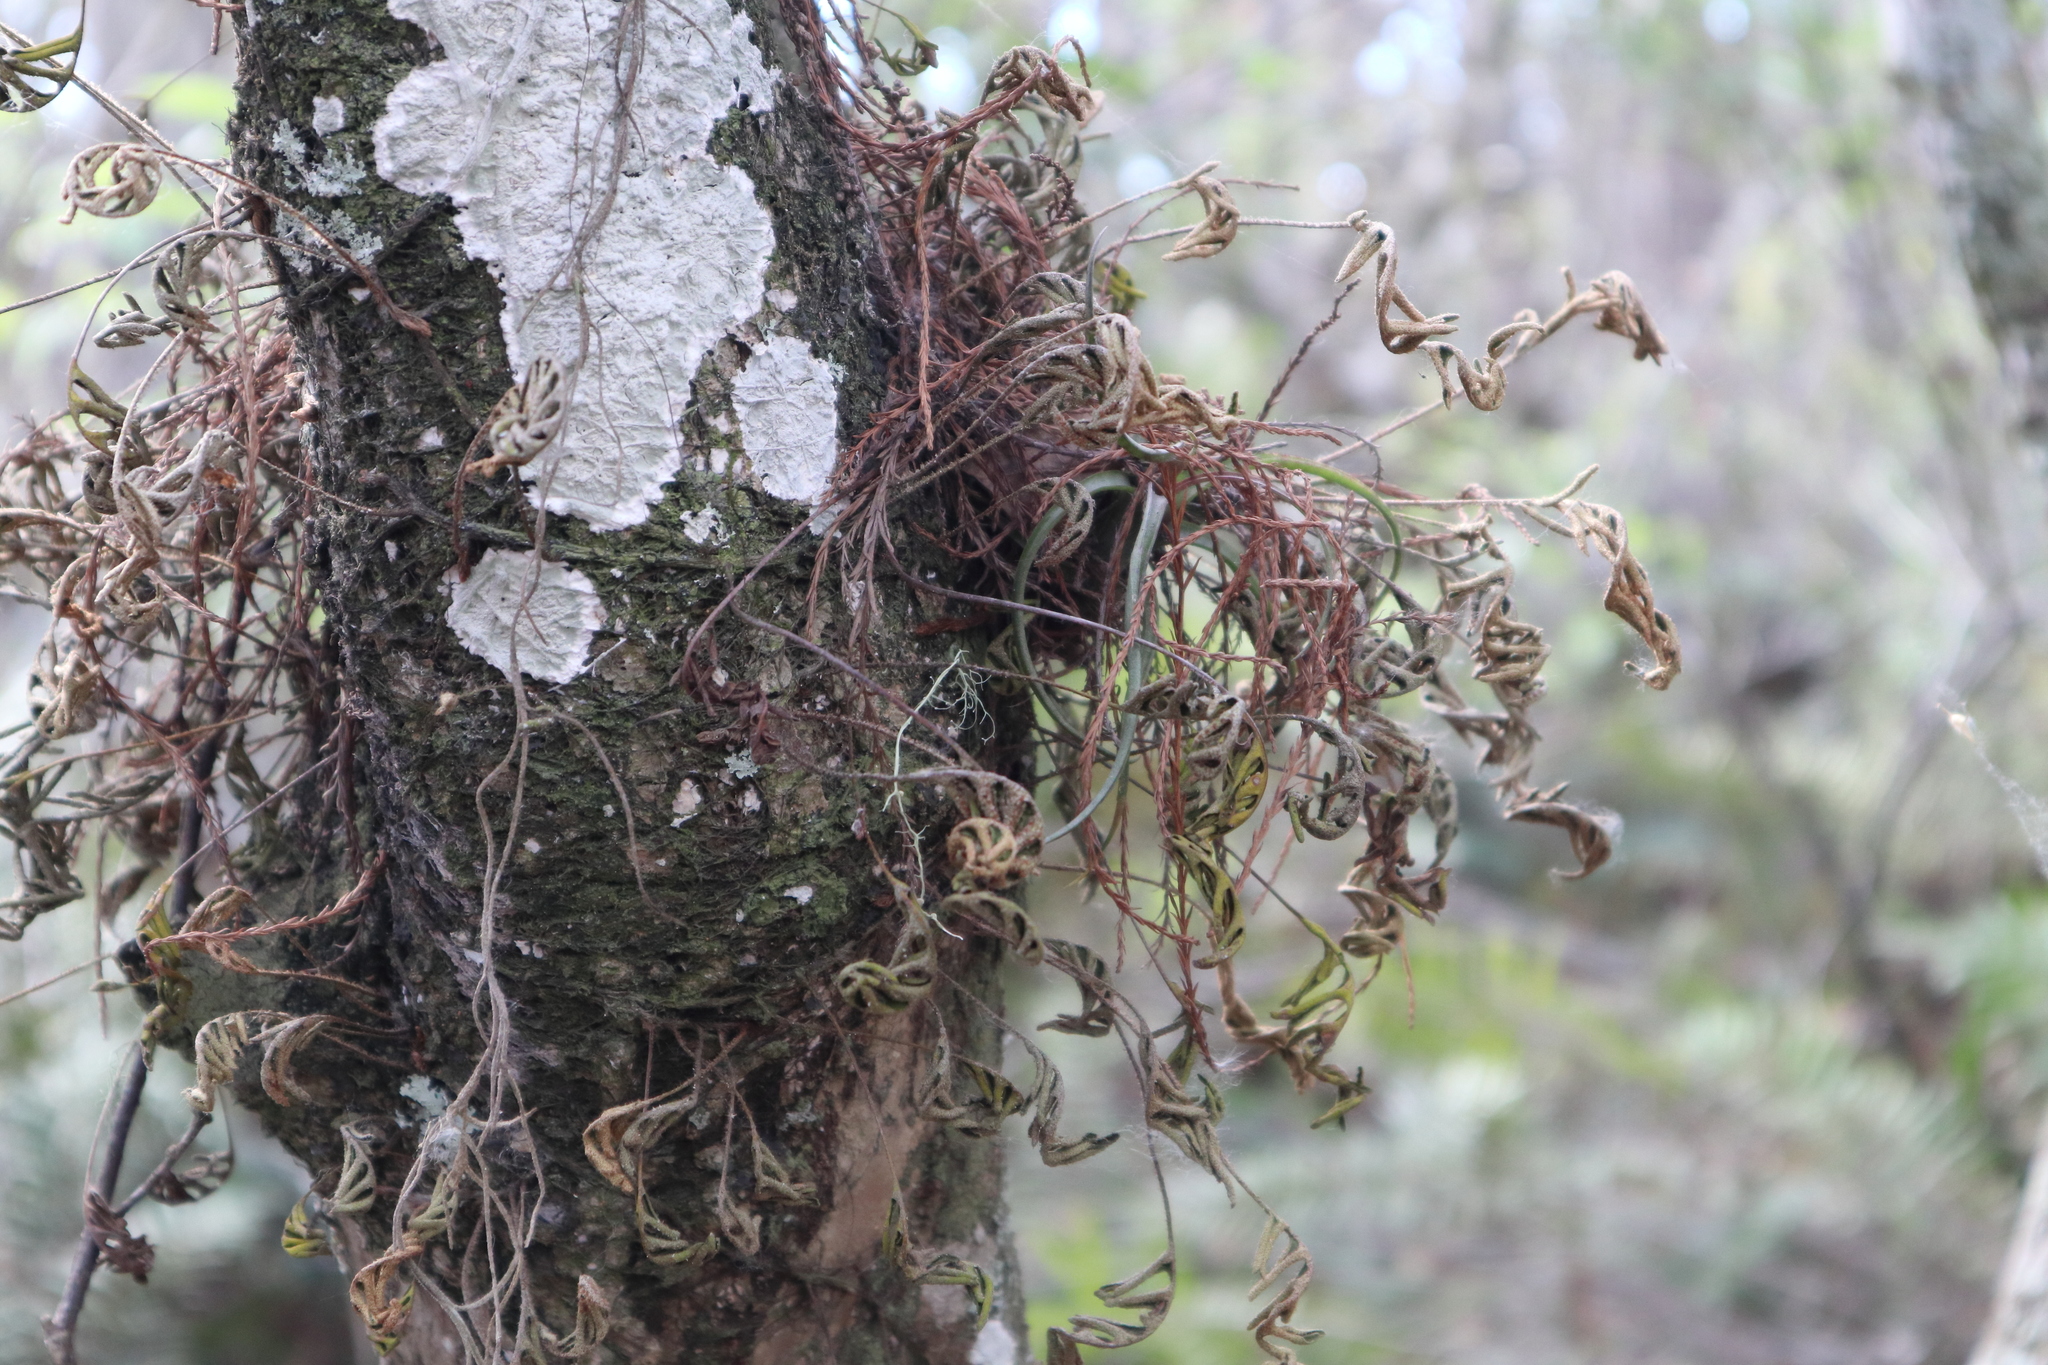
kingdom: Plantae
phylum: Tracheophyta
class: Polypodiopsida
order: Polypodiales
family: Polypodiaceae
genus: Pleopeltis
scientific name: Pleopeltis michauxiana
